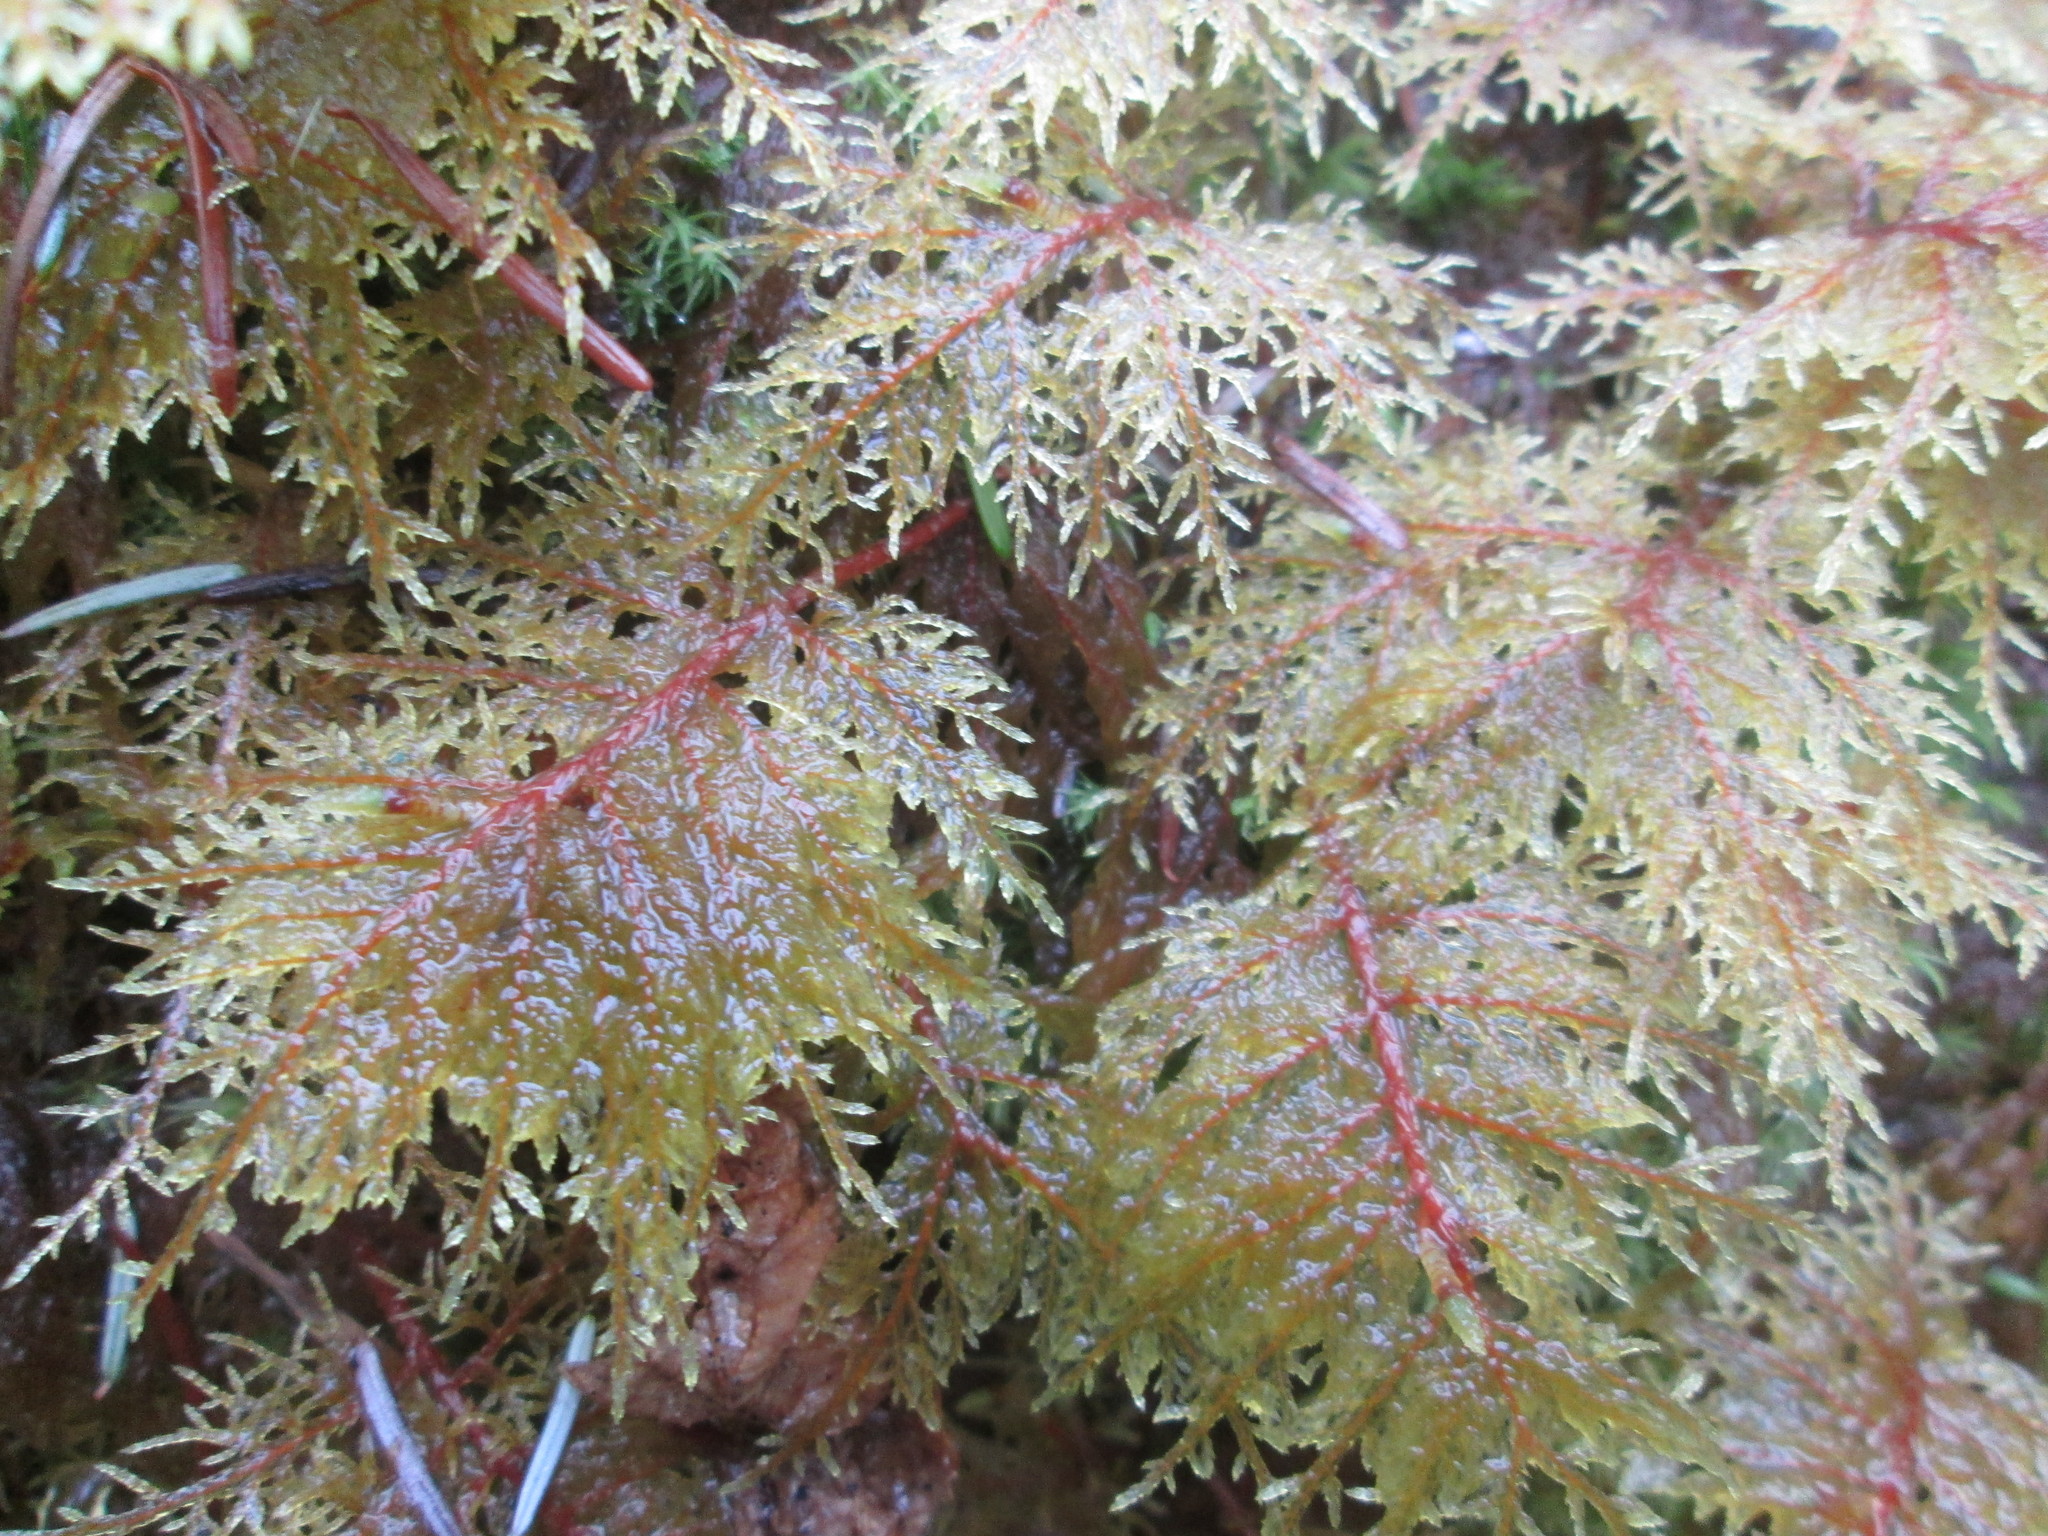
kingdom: Plantae
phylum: Bryophyta
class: Bryopsida
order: Hypnales
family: Hylocomiaceae
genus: Hylocomium
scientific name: Hylocomium splendens
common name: Stairstep moss
